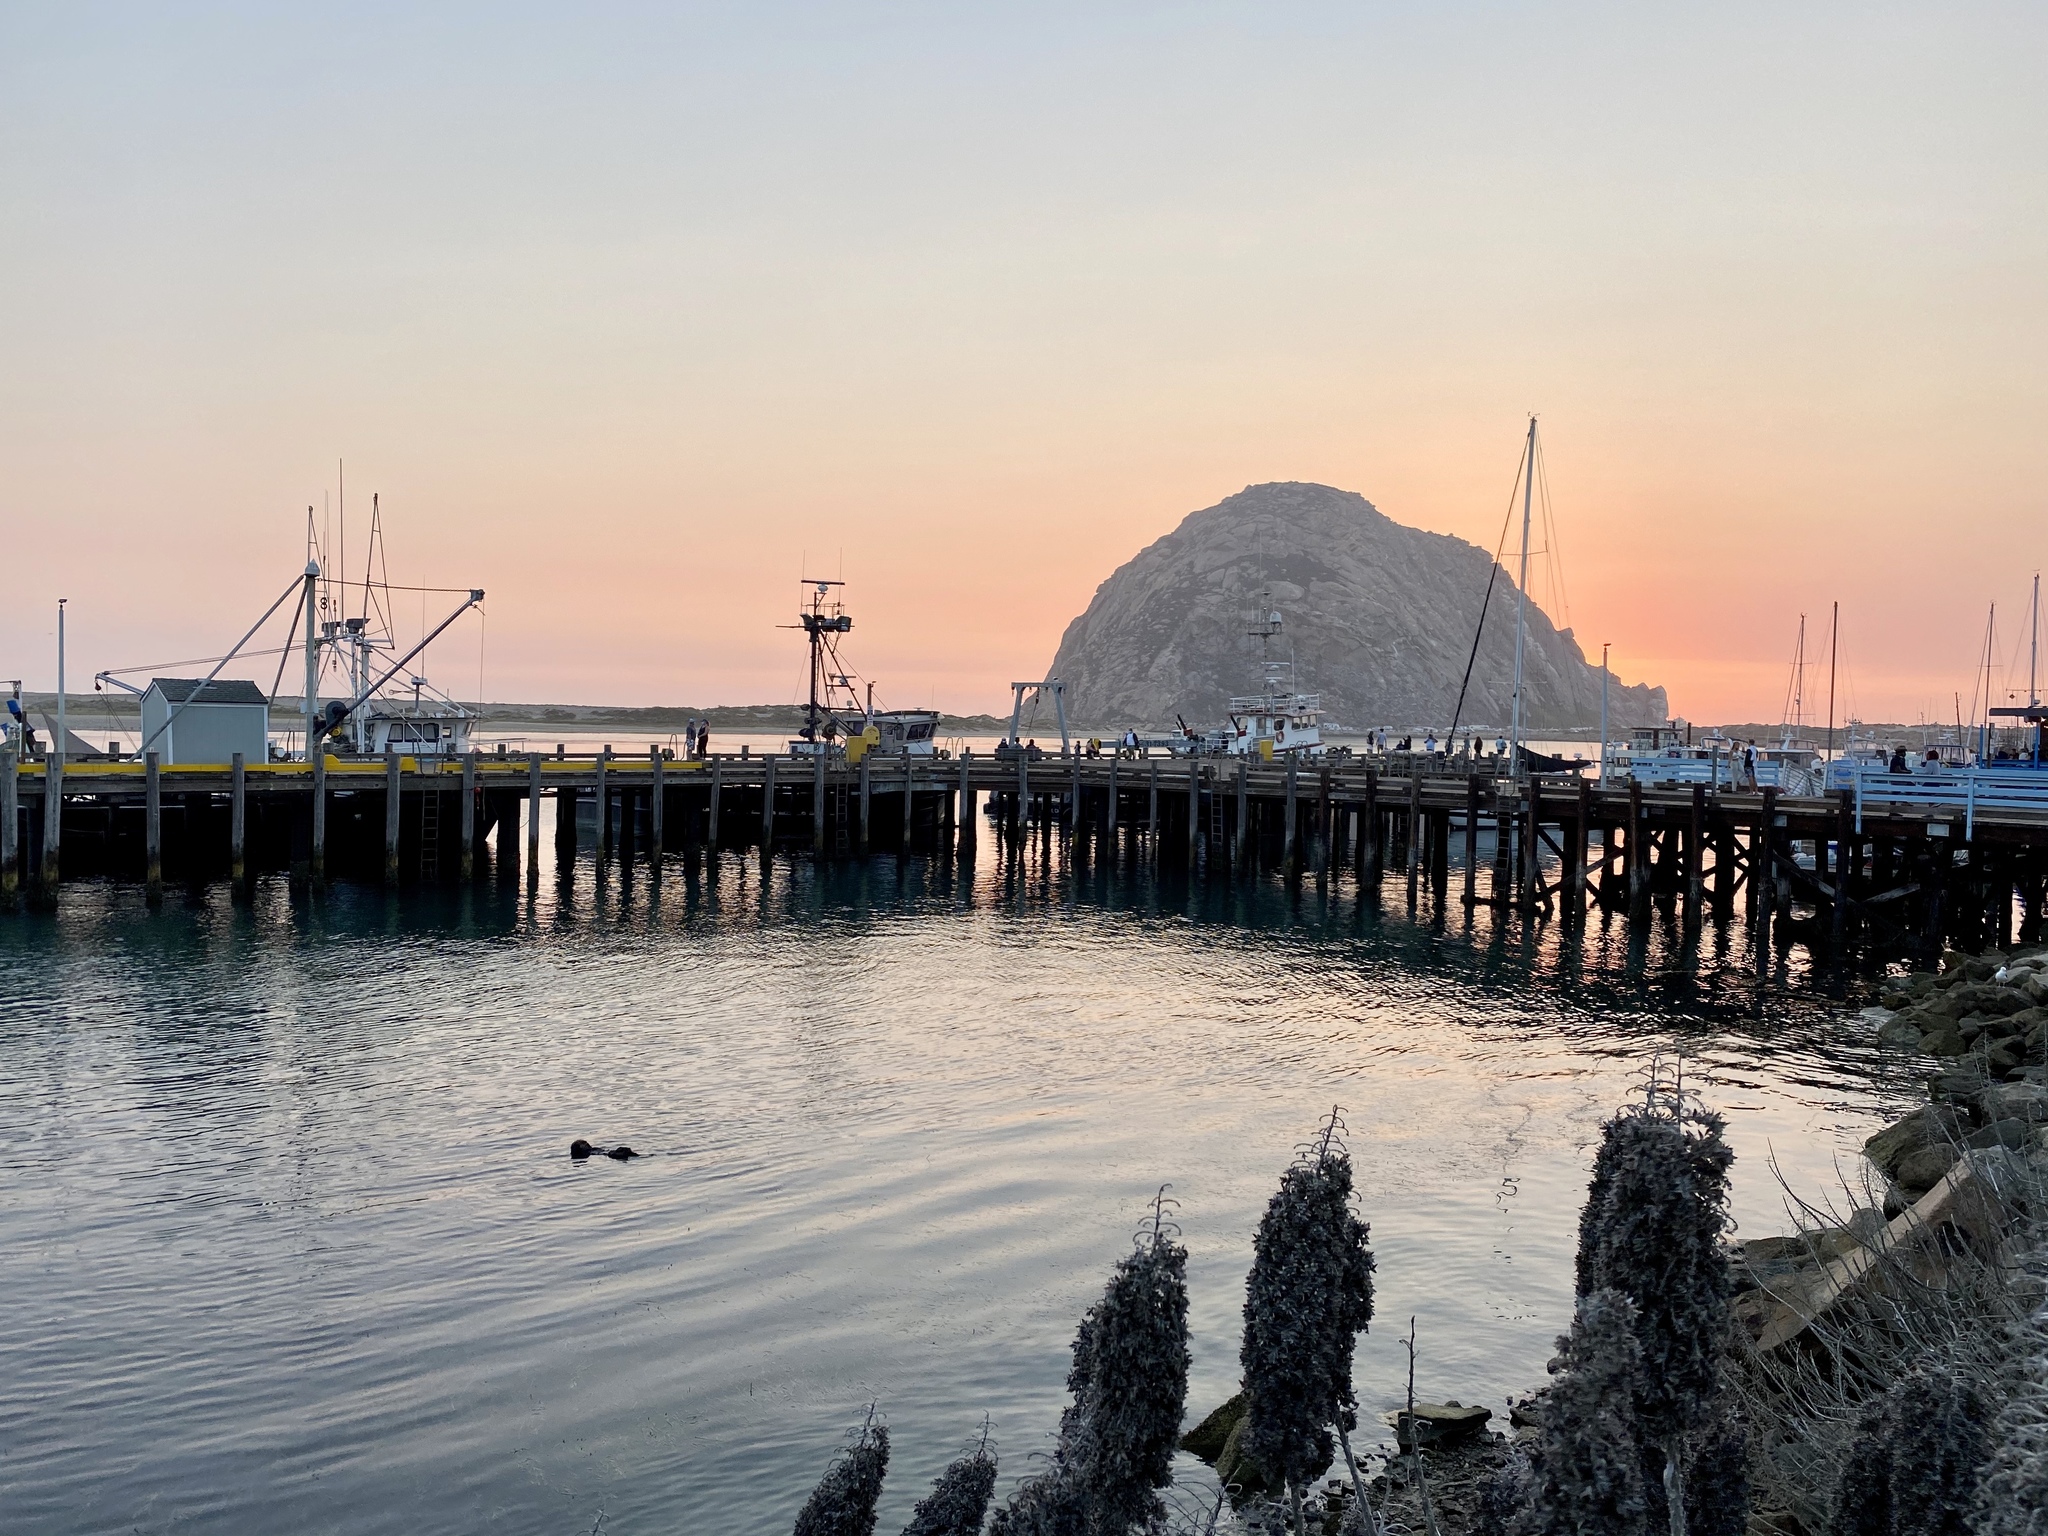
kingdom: Animalia
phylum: Chordata
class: Mammalia
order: Carnivora
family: Mustelidae
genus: Enhydra
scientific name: Enhydra lutris
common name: Sea otter
